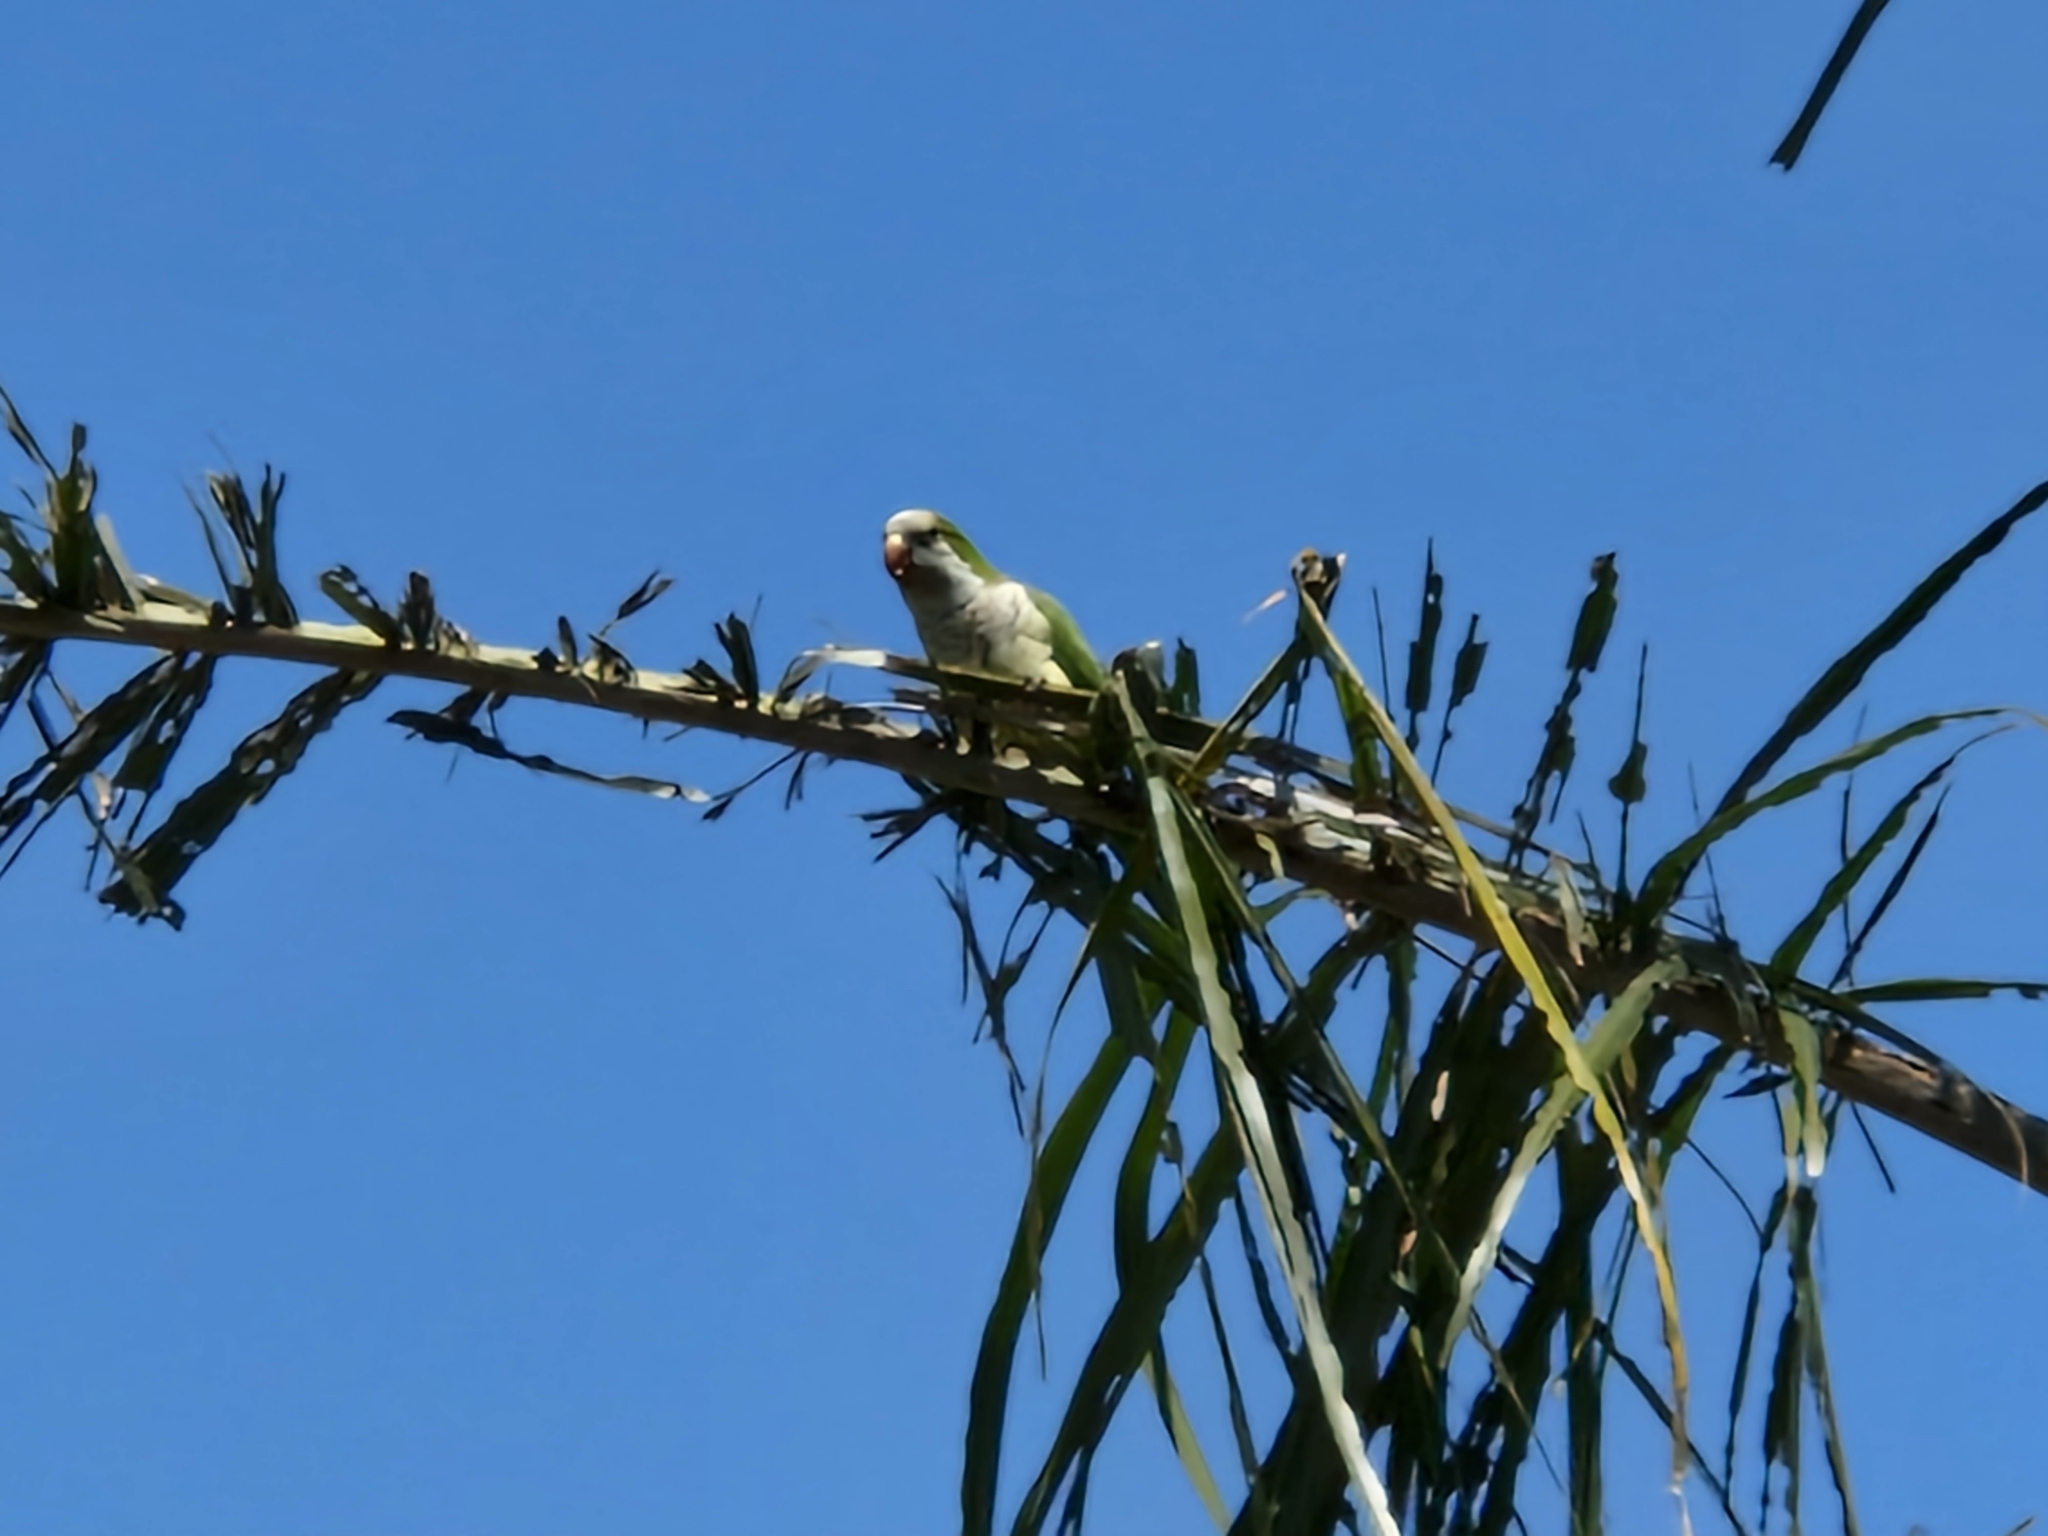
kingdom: Animalia
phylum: Chordata
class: Aves
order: Psittaciformes
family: Psittacidae
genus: Myiopsitta
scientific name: Myiopsitta monachus
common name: Monk parakeet
